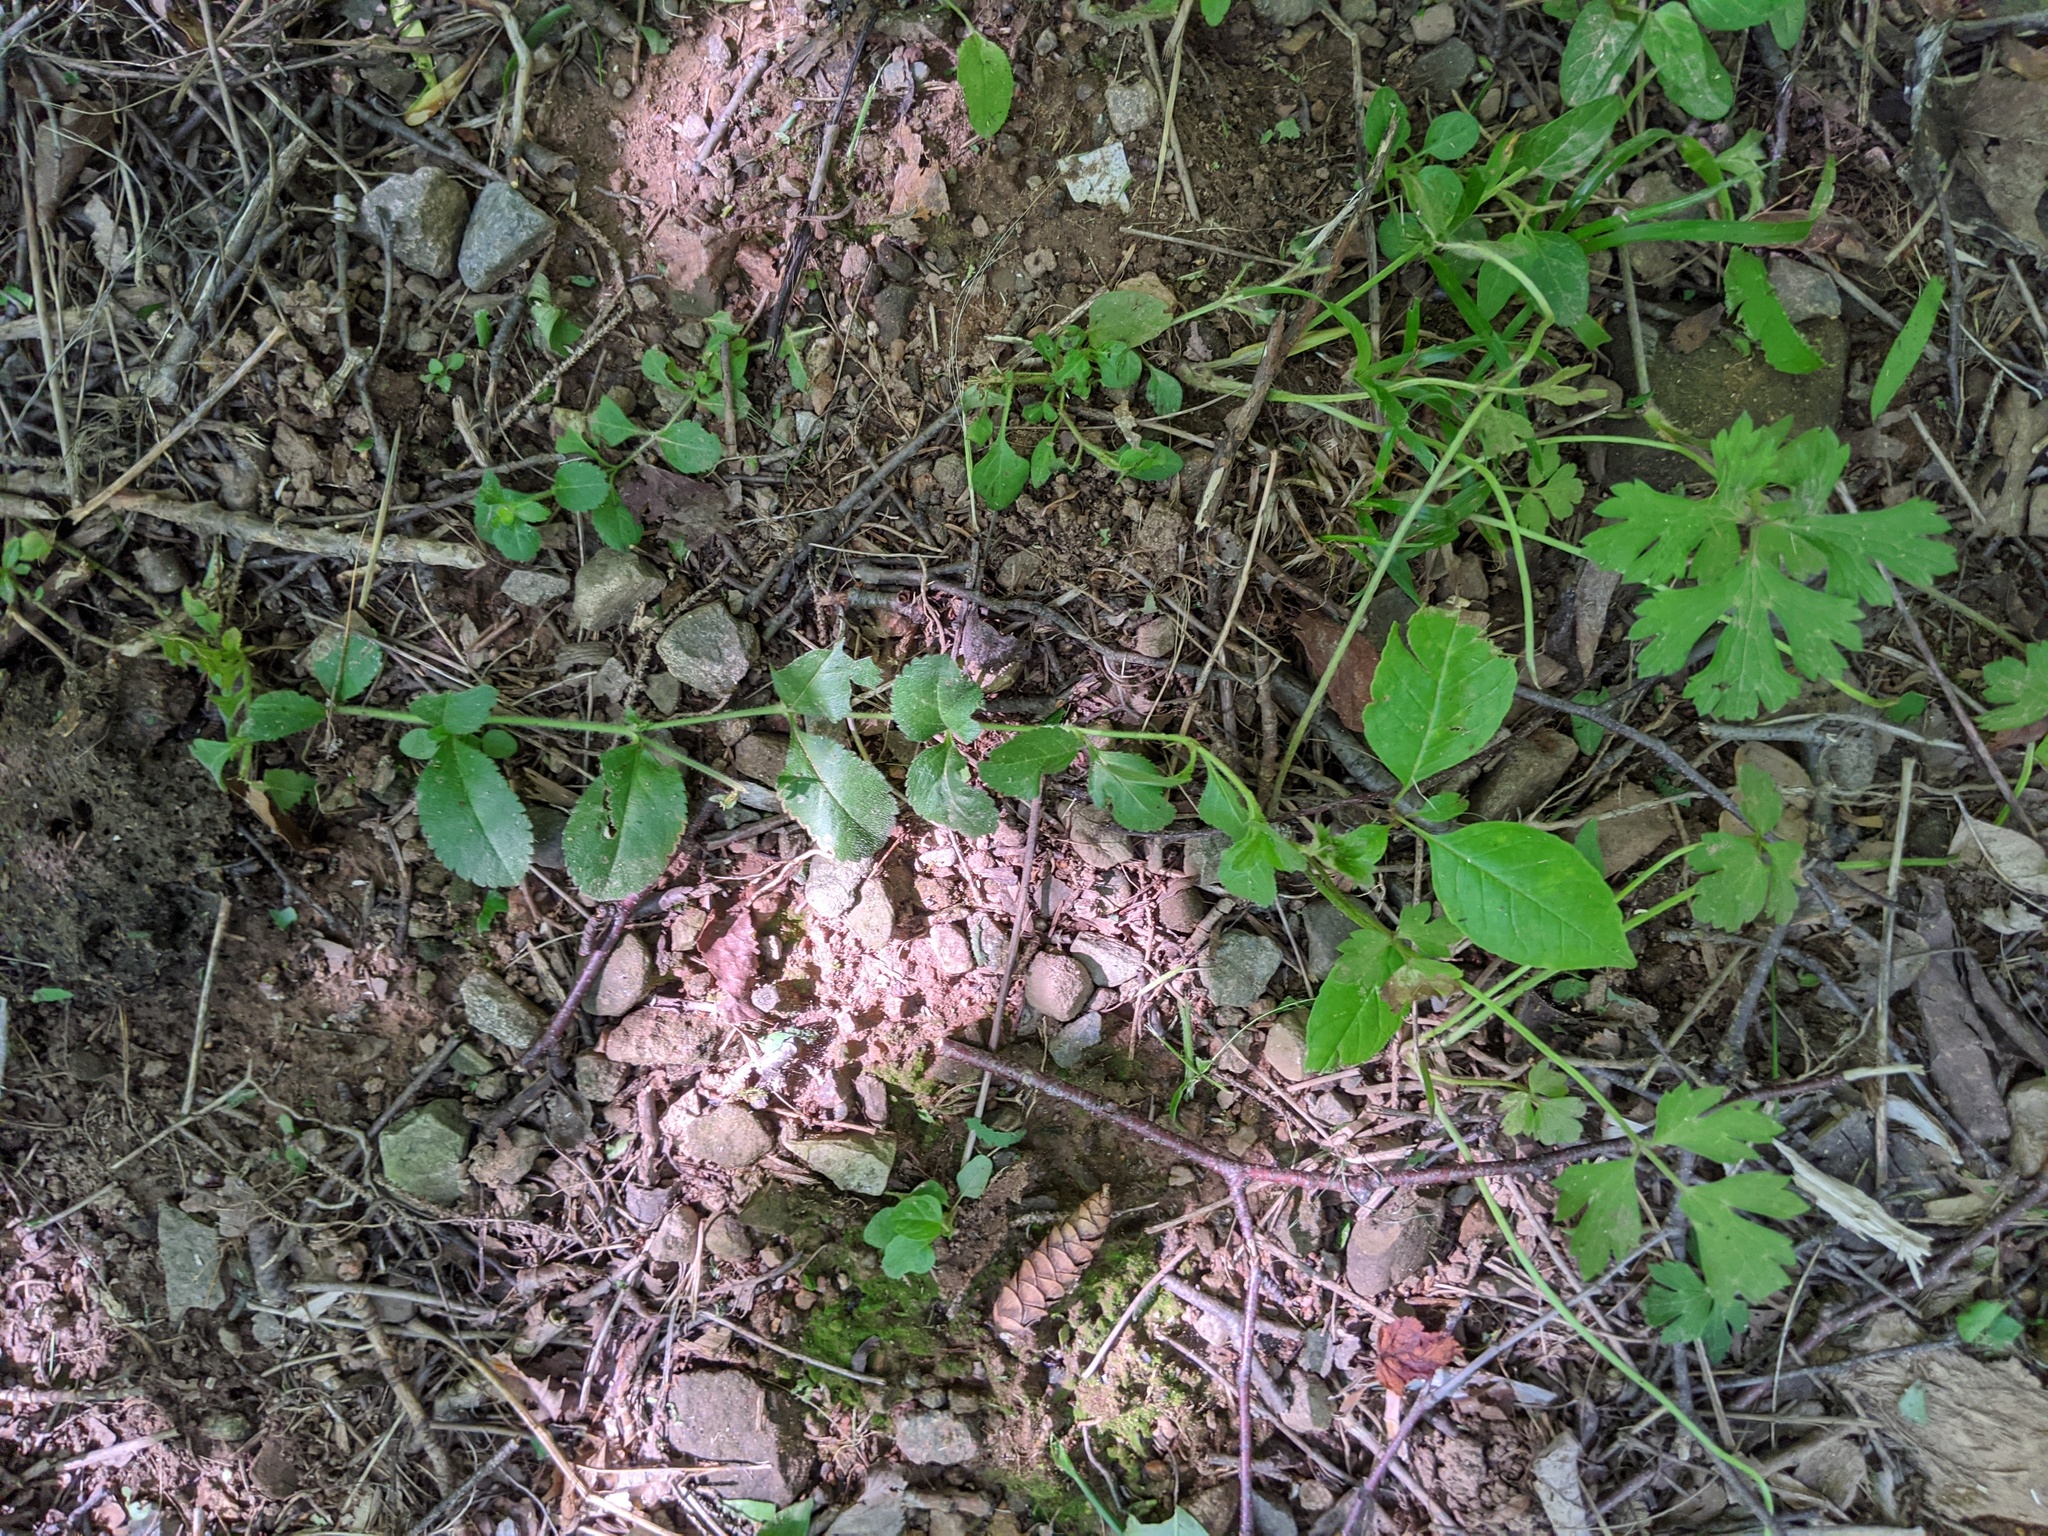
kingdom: Plantae
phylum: Tracheophyta
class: Magnoliopsida
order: Lamiales
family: Plantaginaceae
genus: Veronica
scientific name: Veronica officinalis
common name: Common speedwell
